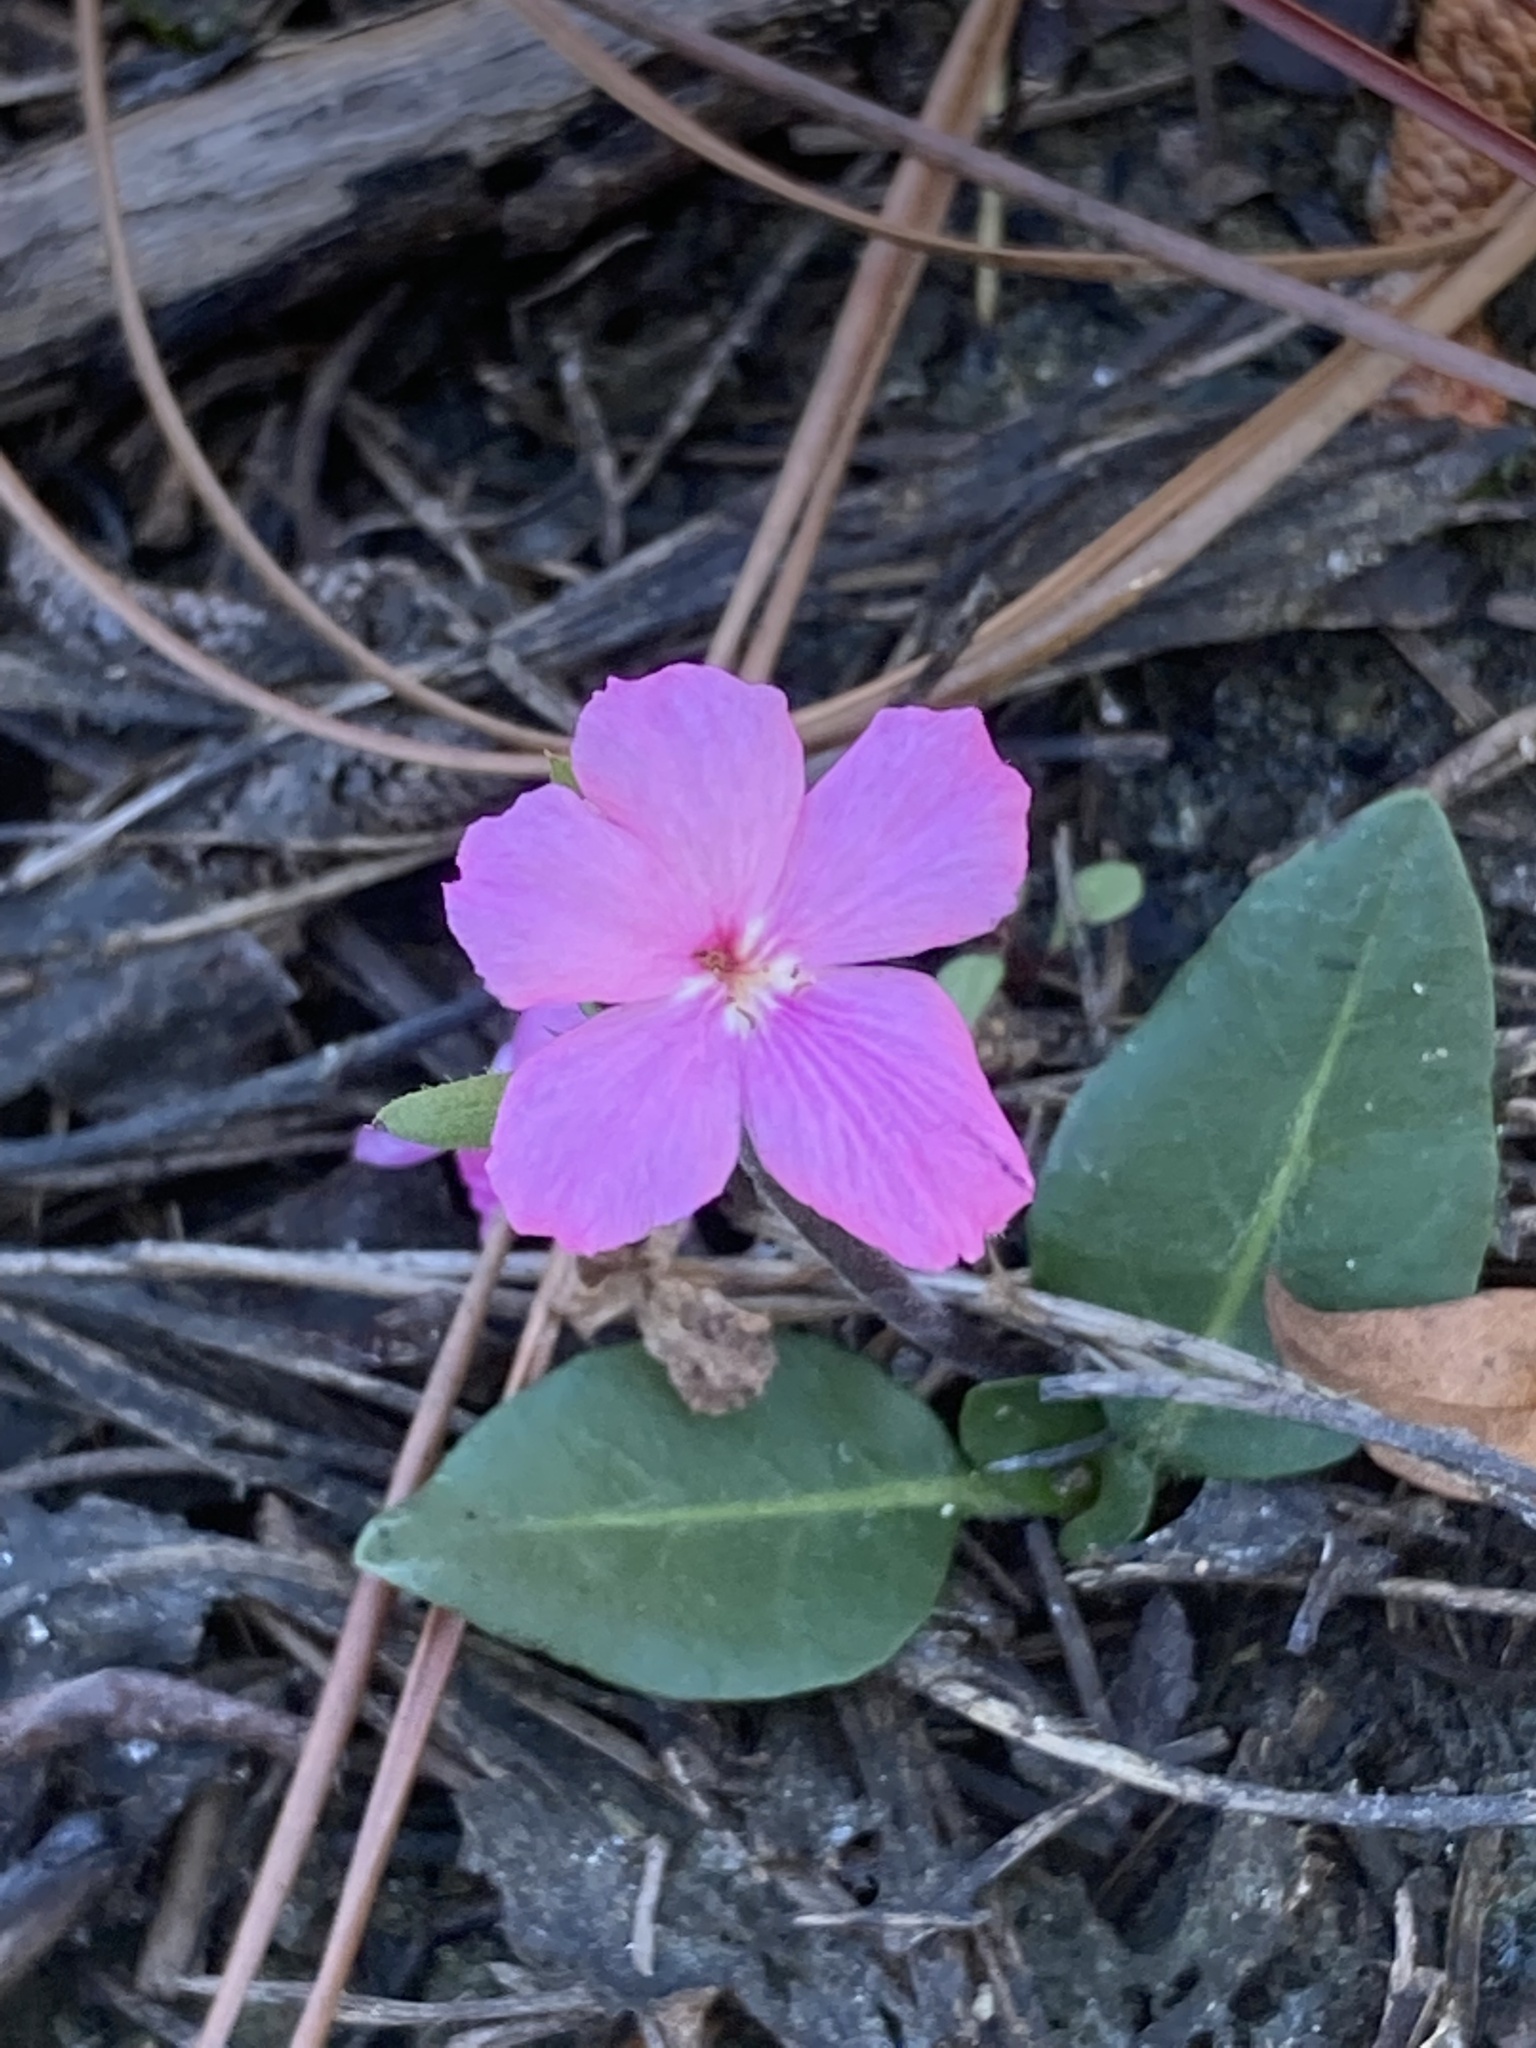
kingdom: Plantae
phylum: Tracheophyta
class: Magnoliopsida
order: Lamiales
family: Acanthaceae
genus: Stenandrium
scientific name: Stenandrium dulce
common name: Pinklet
